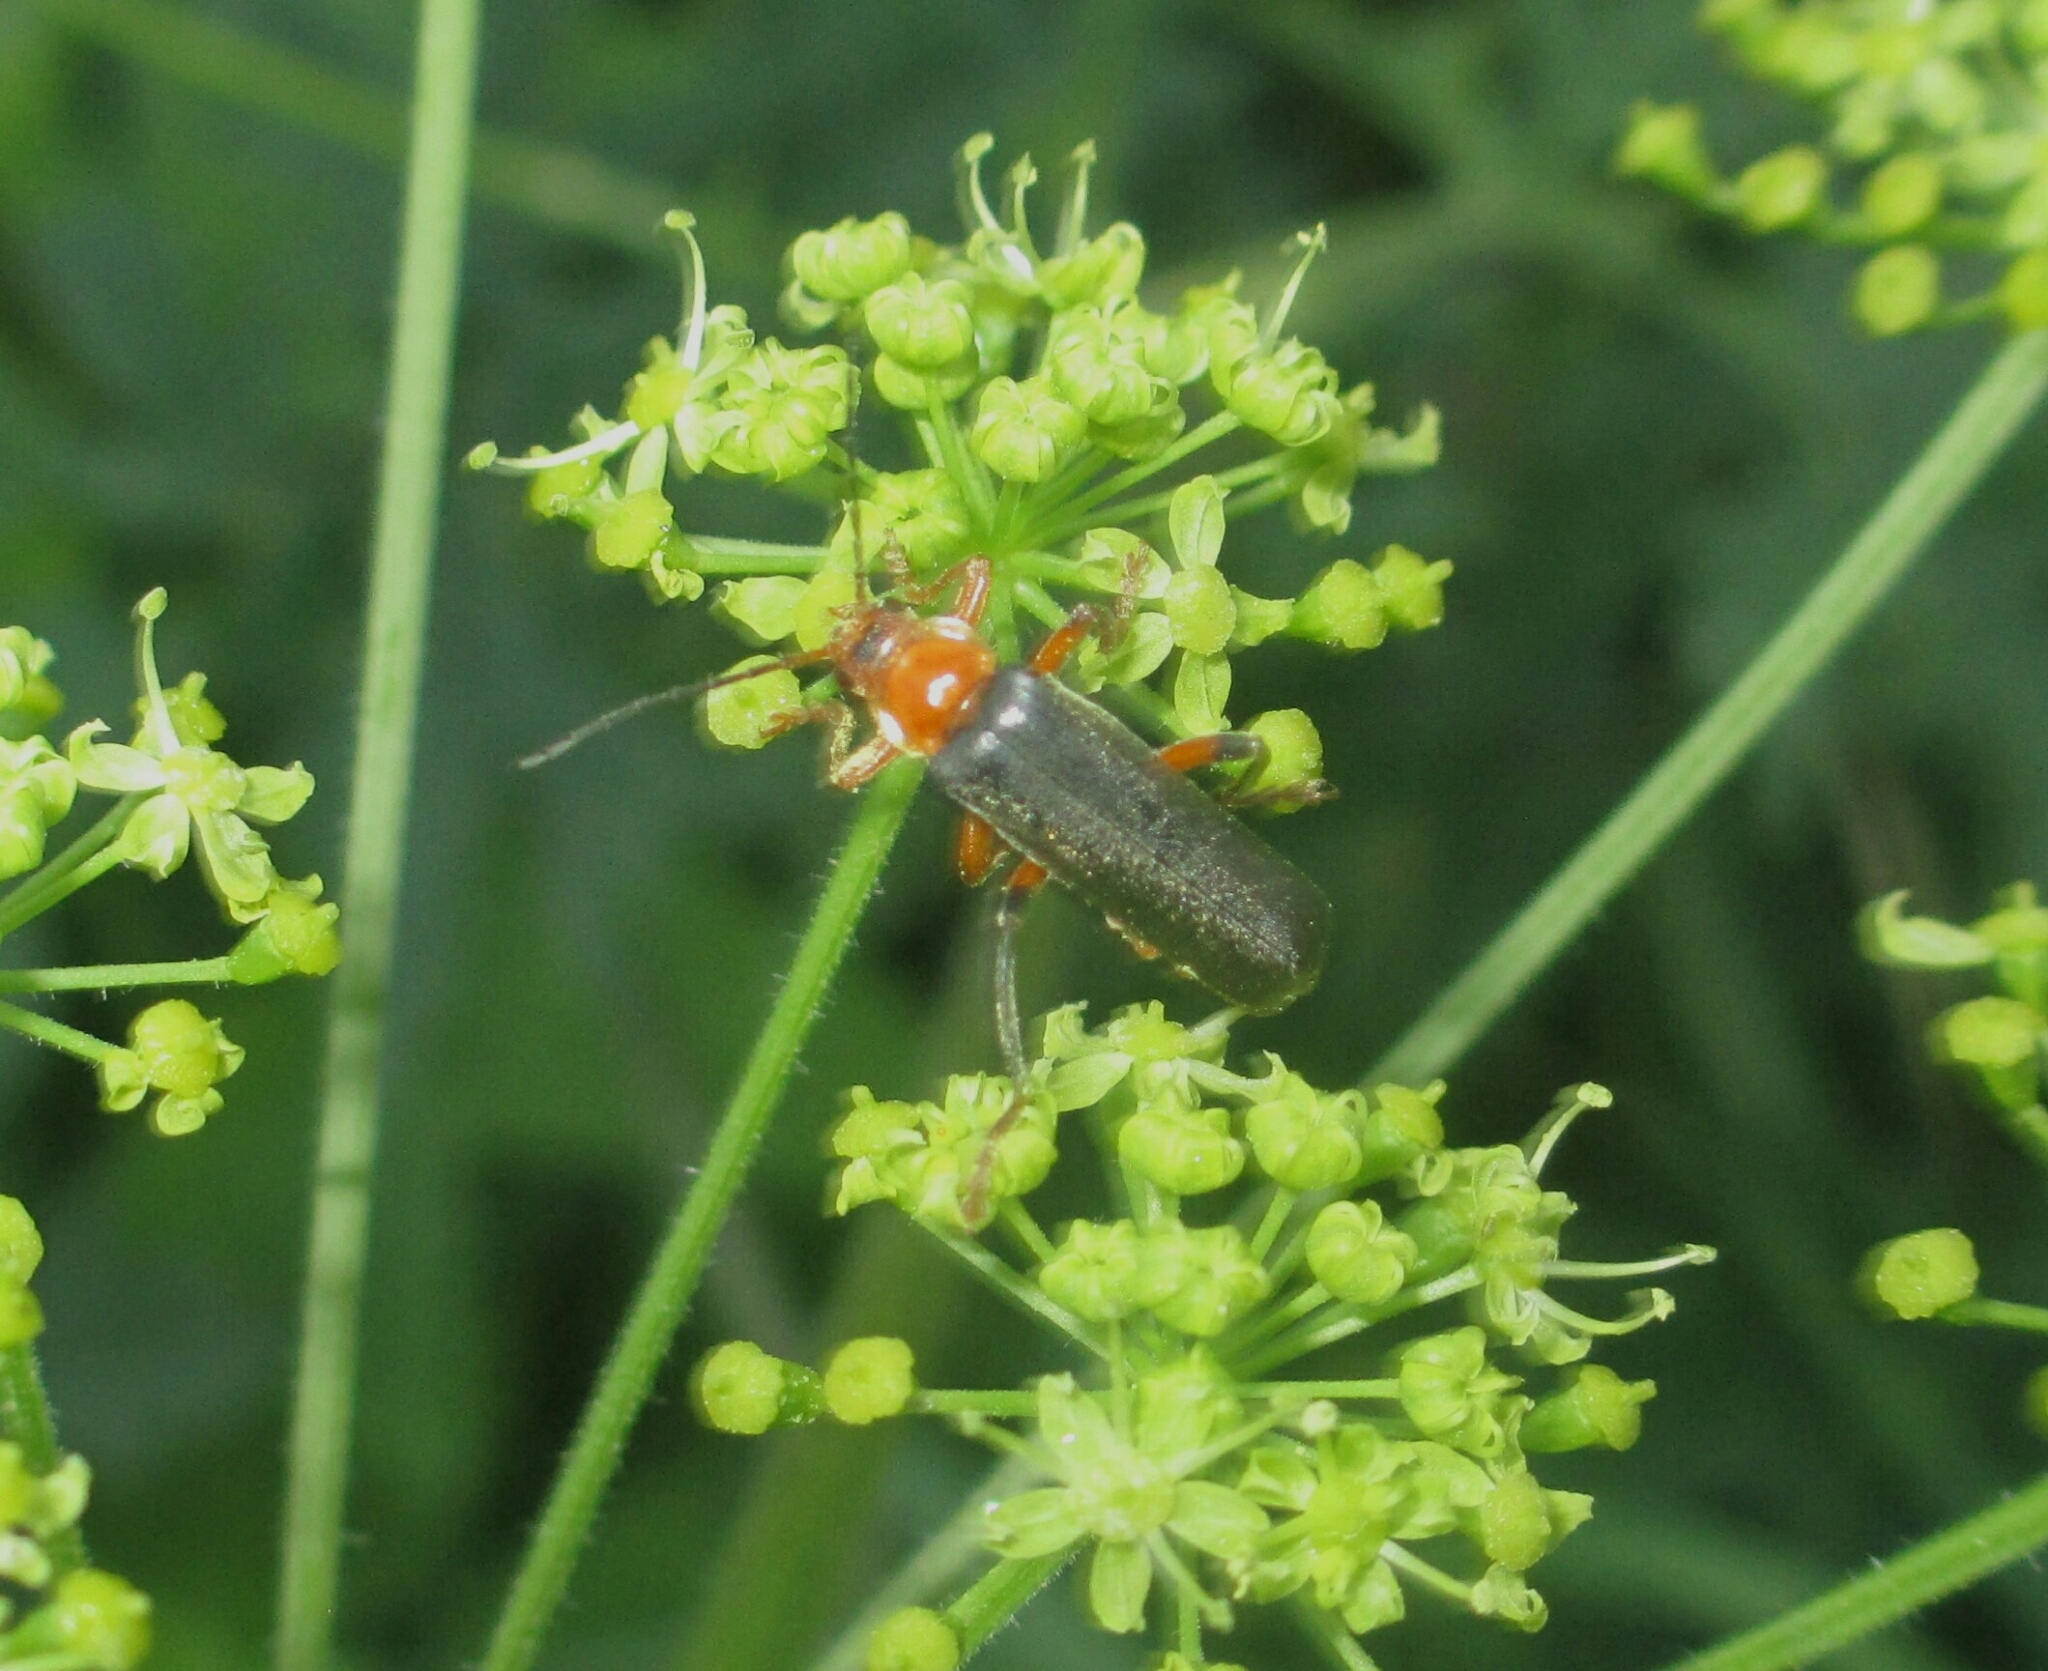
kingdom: Animalia
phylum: Arthropoda
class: Insecta
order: Coleoptera
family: Cantharidae
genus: Cantharis
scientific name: Cantharis livida
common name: Livid soldier beetle
